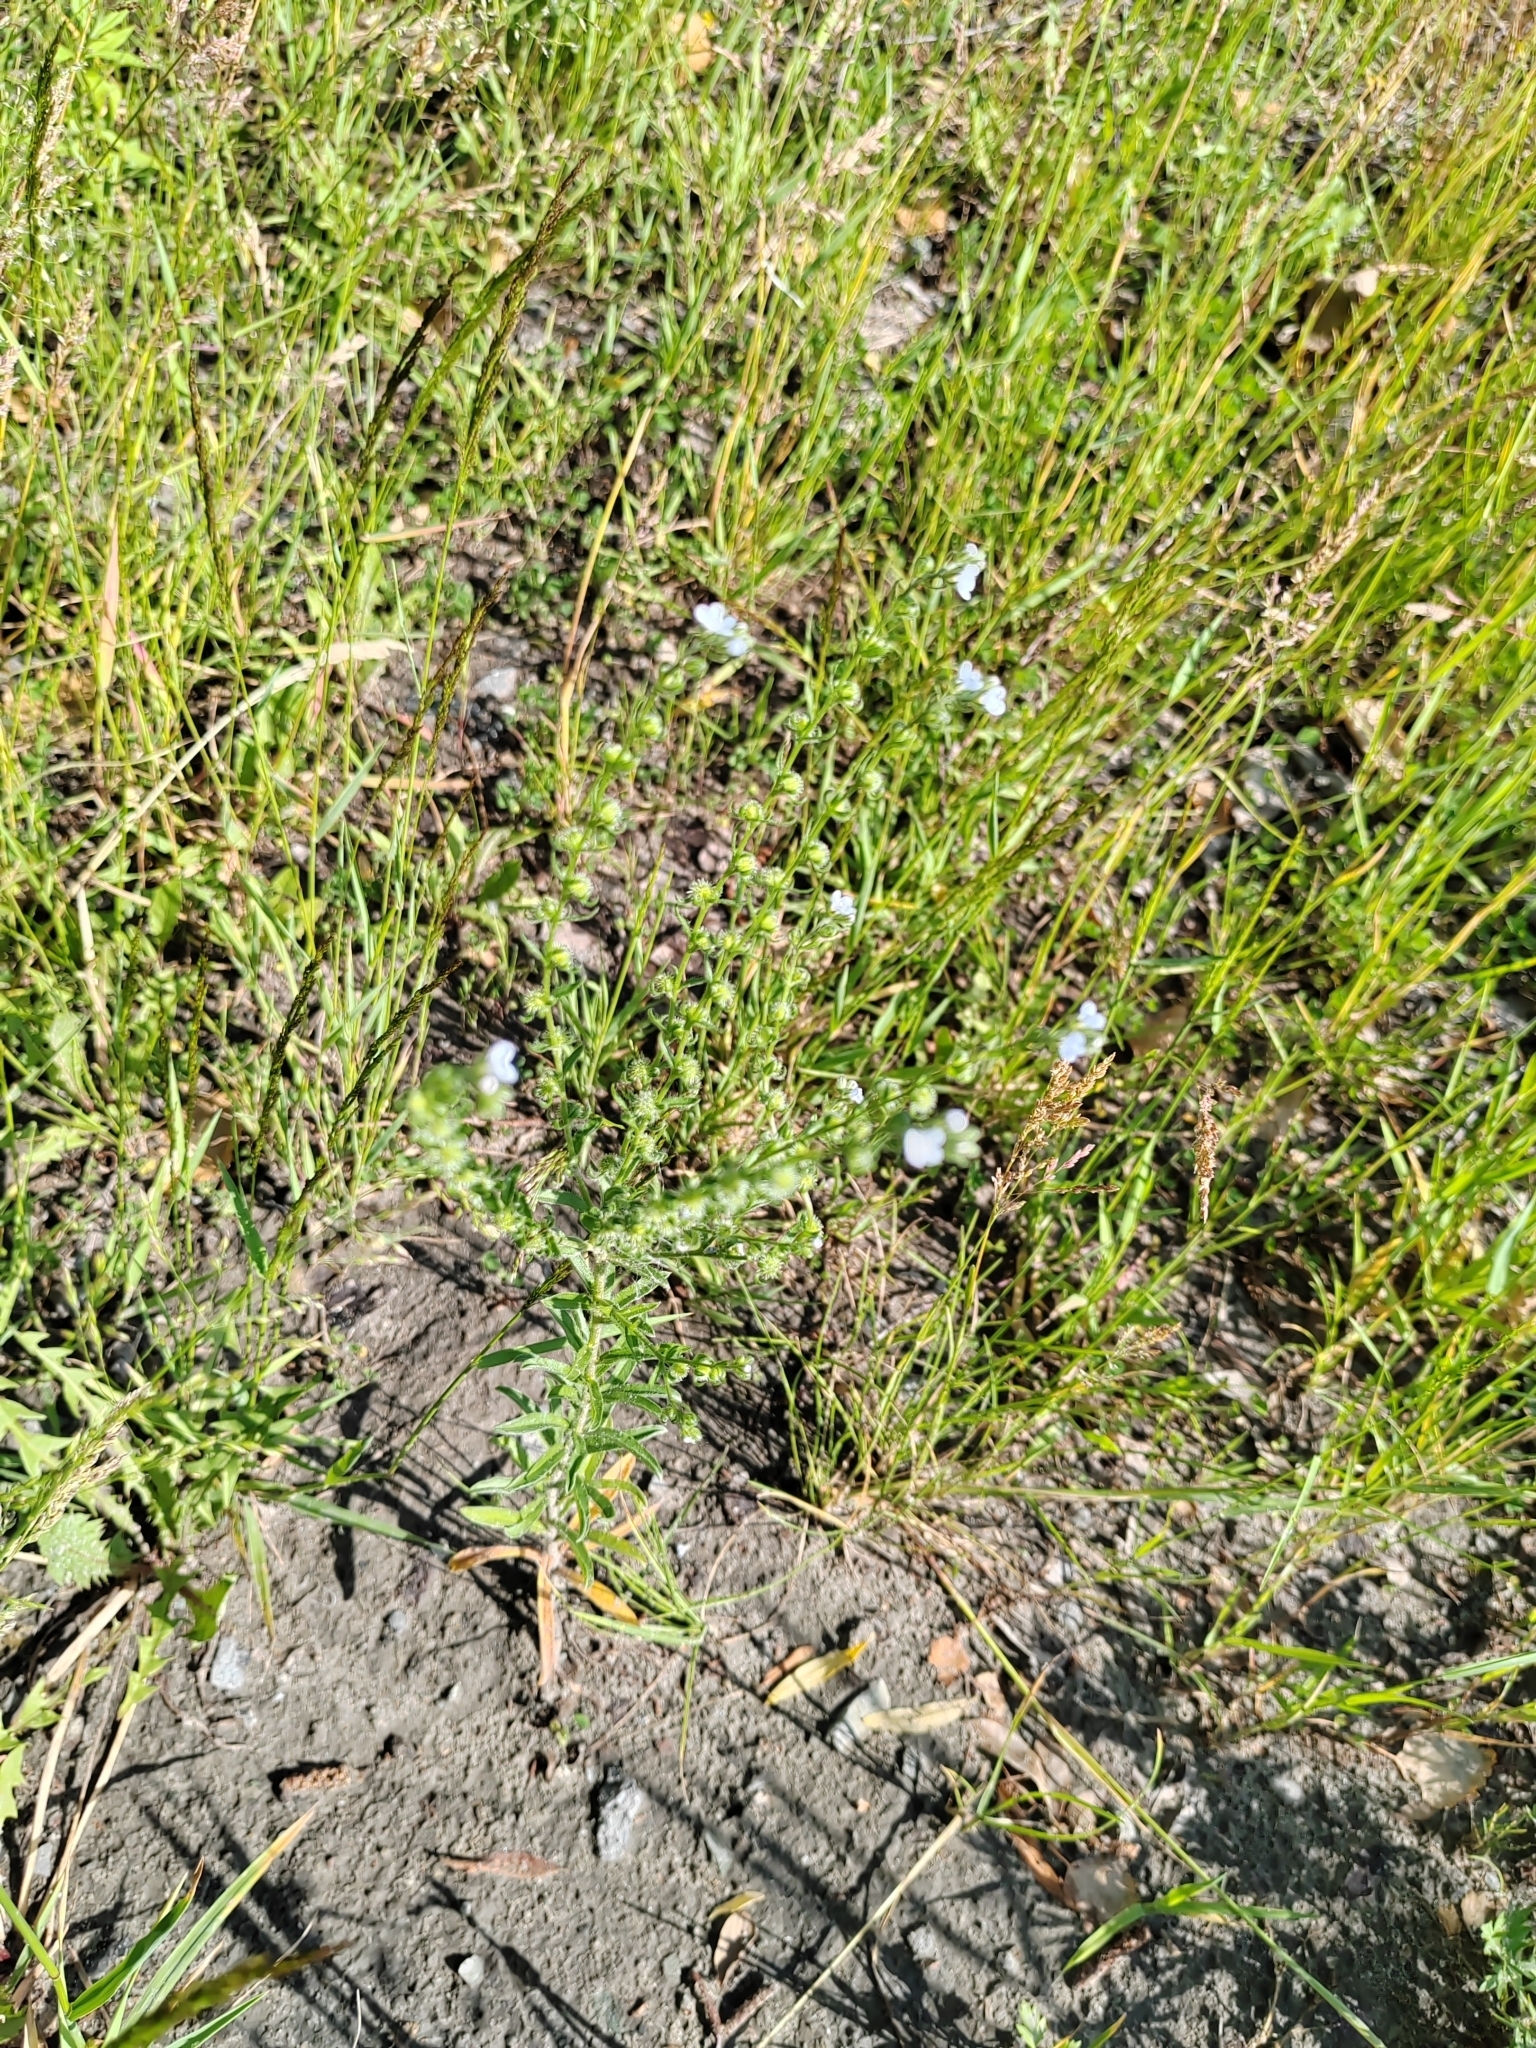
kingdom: Plantae
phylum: Tracheophyta
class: Magnoliopsida
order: Boraginales
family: Boraginaceae
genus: Lappula
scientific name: Lappula squarrosa
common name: European stickseed
